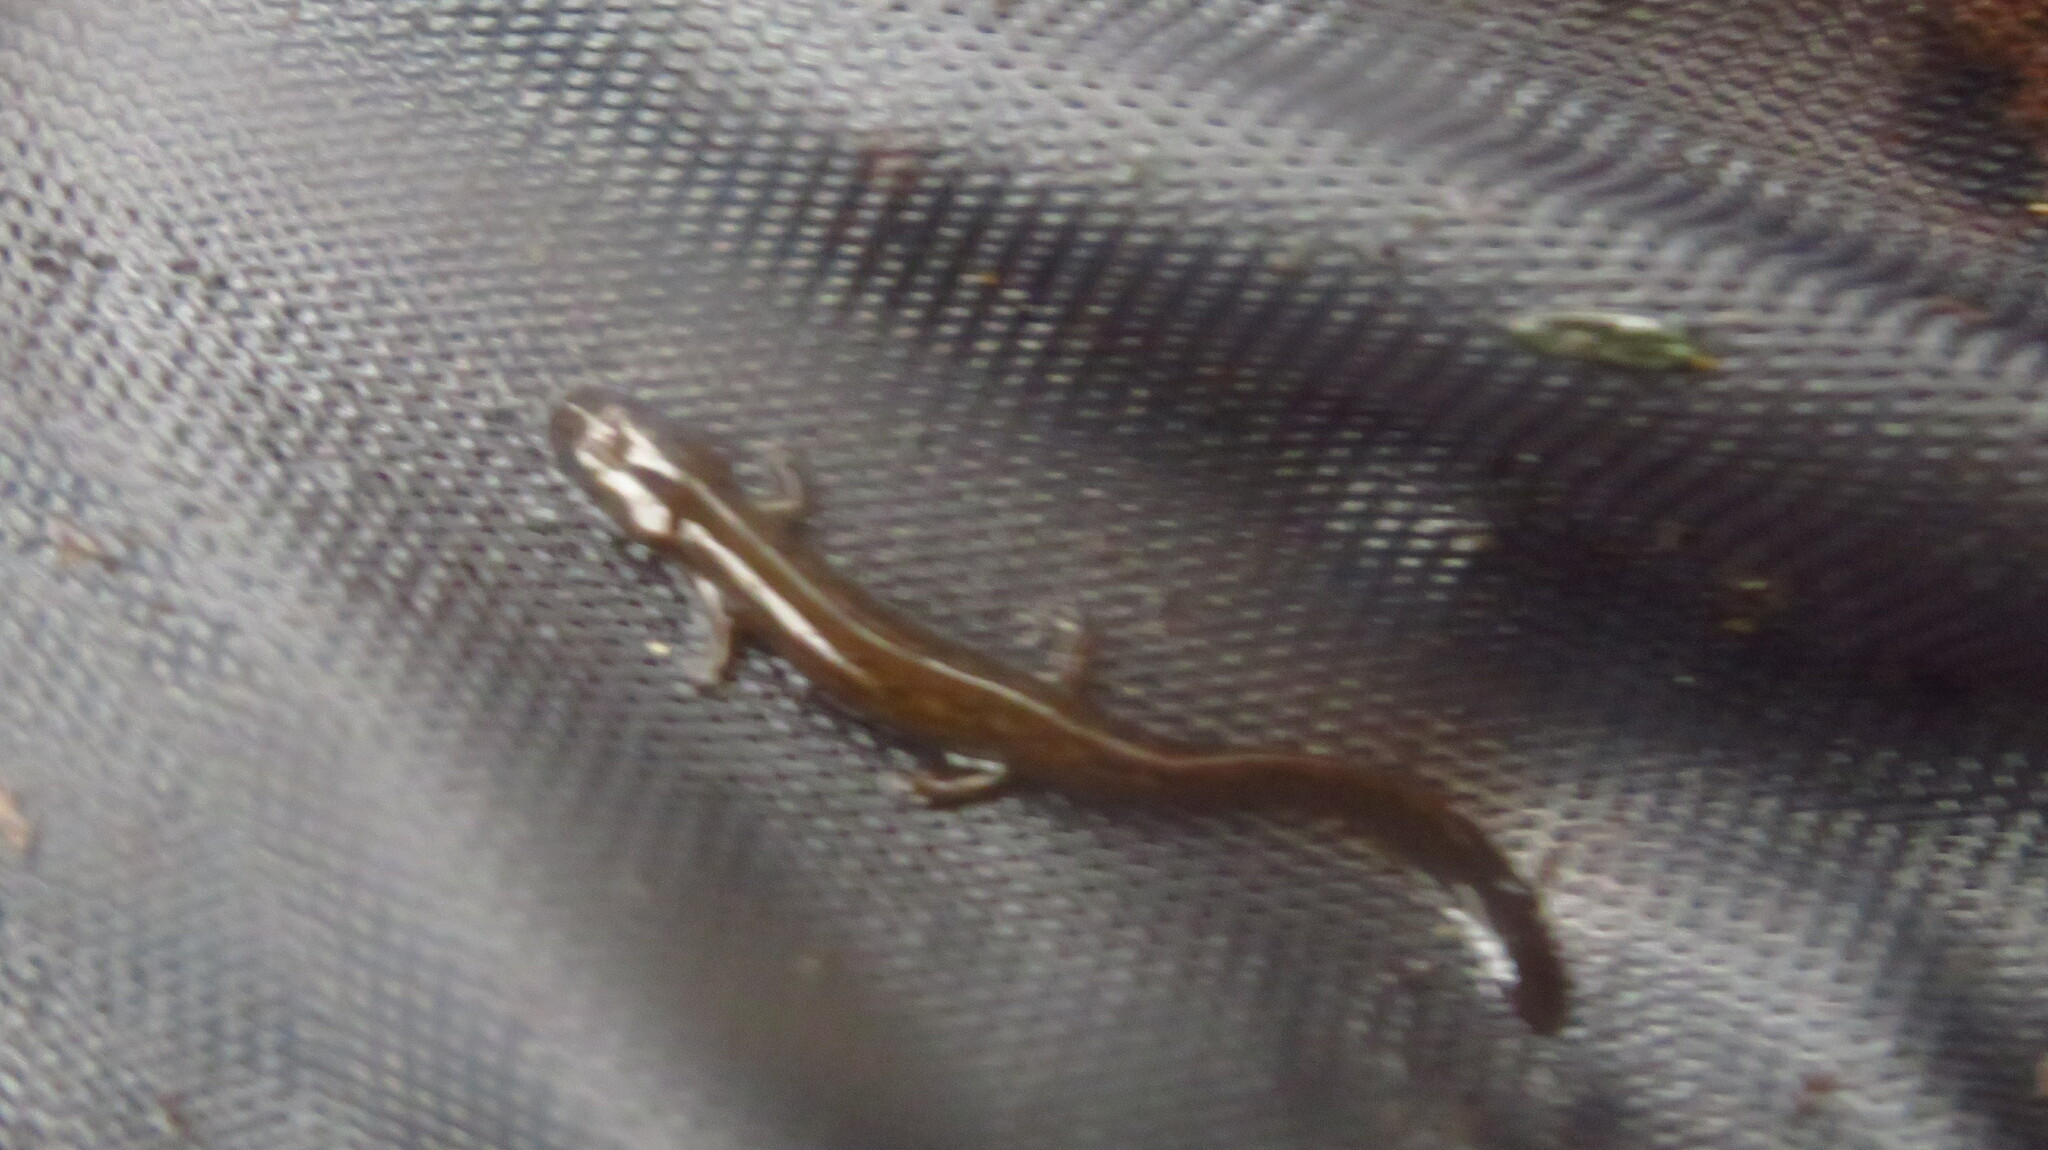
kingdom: Animalia
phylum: Chordata
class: Amphibia
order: Caudata
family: Plethodontidae
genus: Eurycea
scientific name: Eurycea bislineata
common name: Northern two-lined salamander
